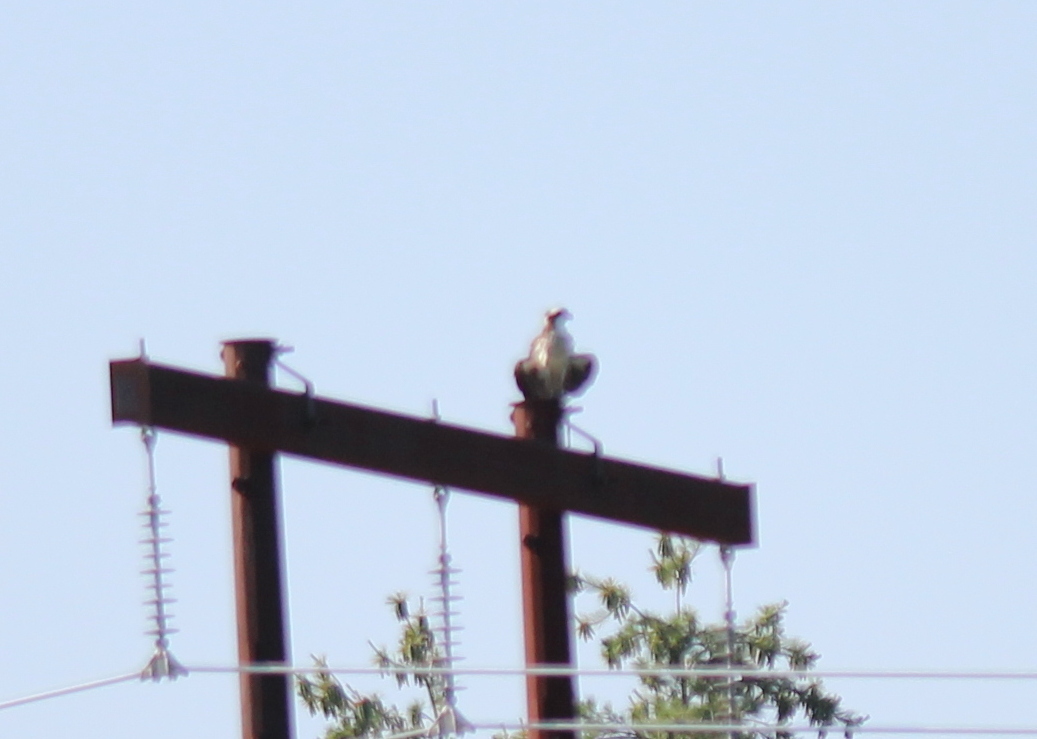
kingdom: Animalia
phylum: Chordata
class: Aves
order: Accipitriformes
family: Pandionidae
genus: Pandion
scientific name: Pandion haliaetus
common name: Osprey
